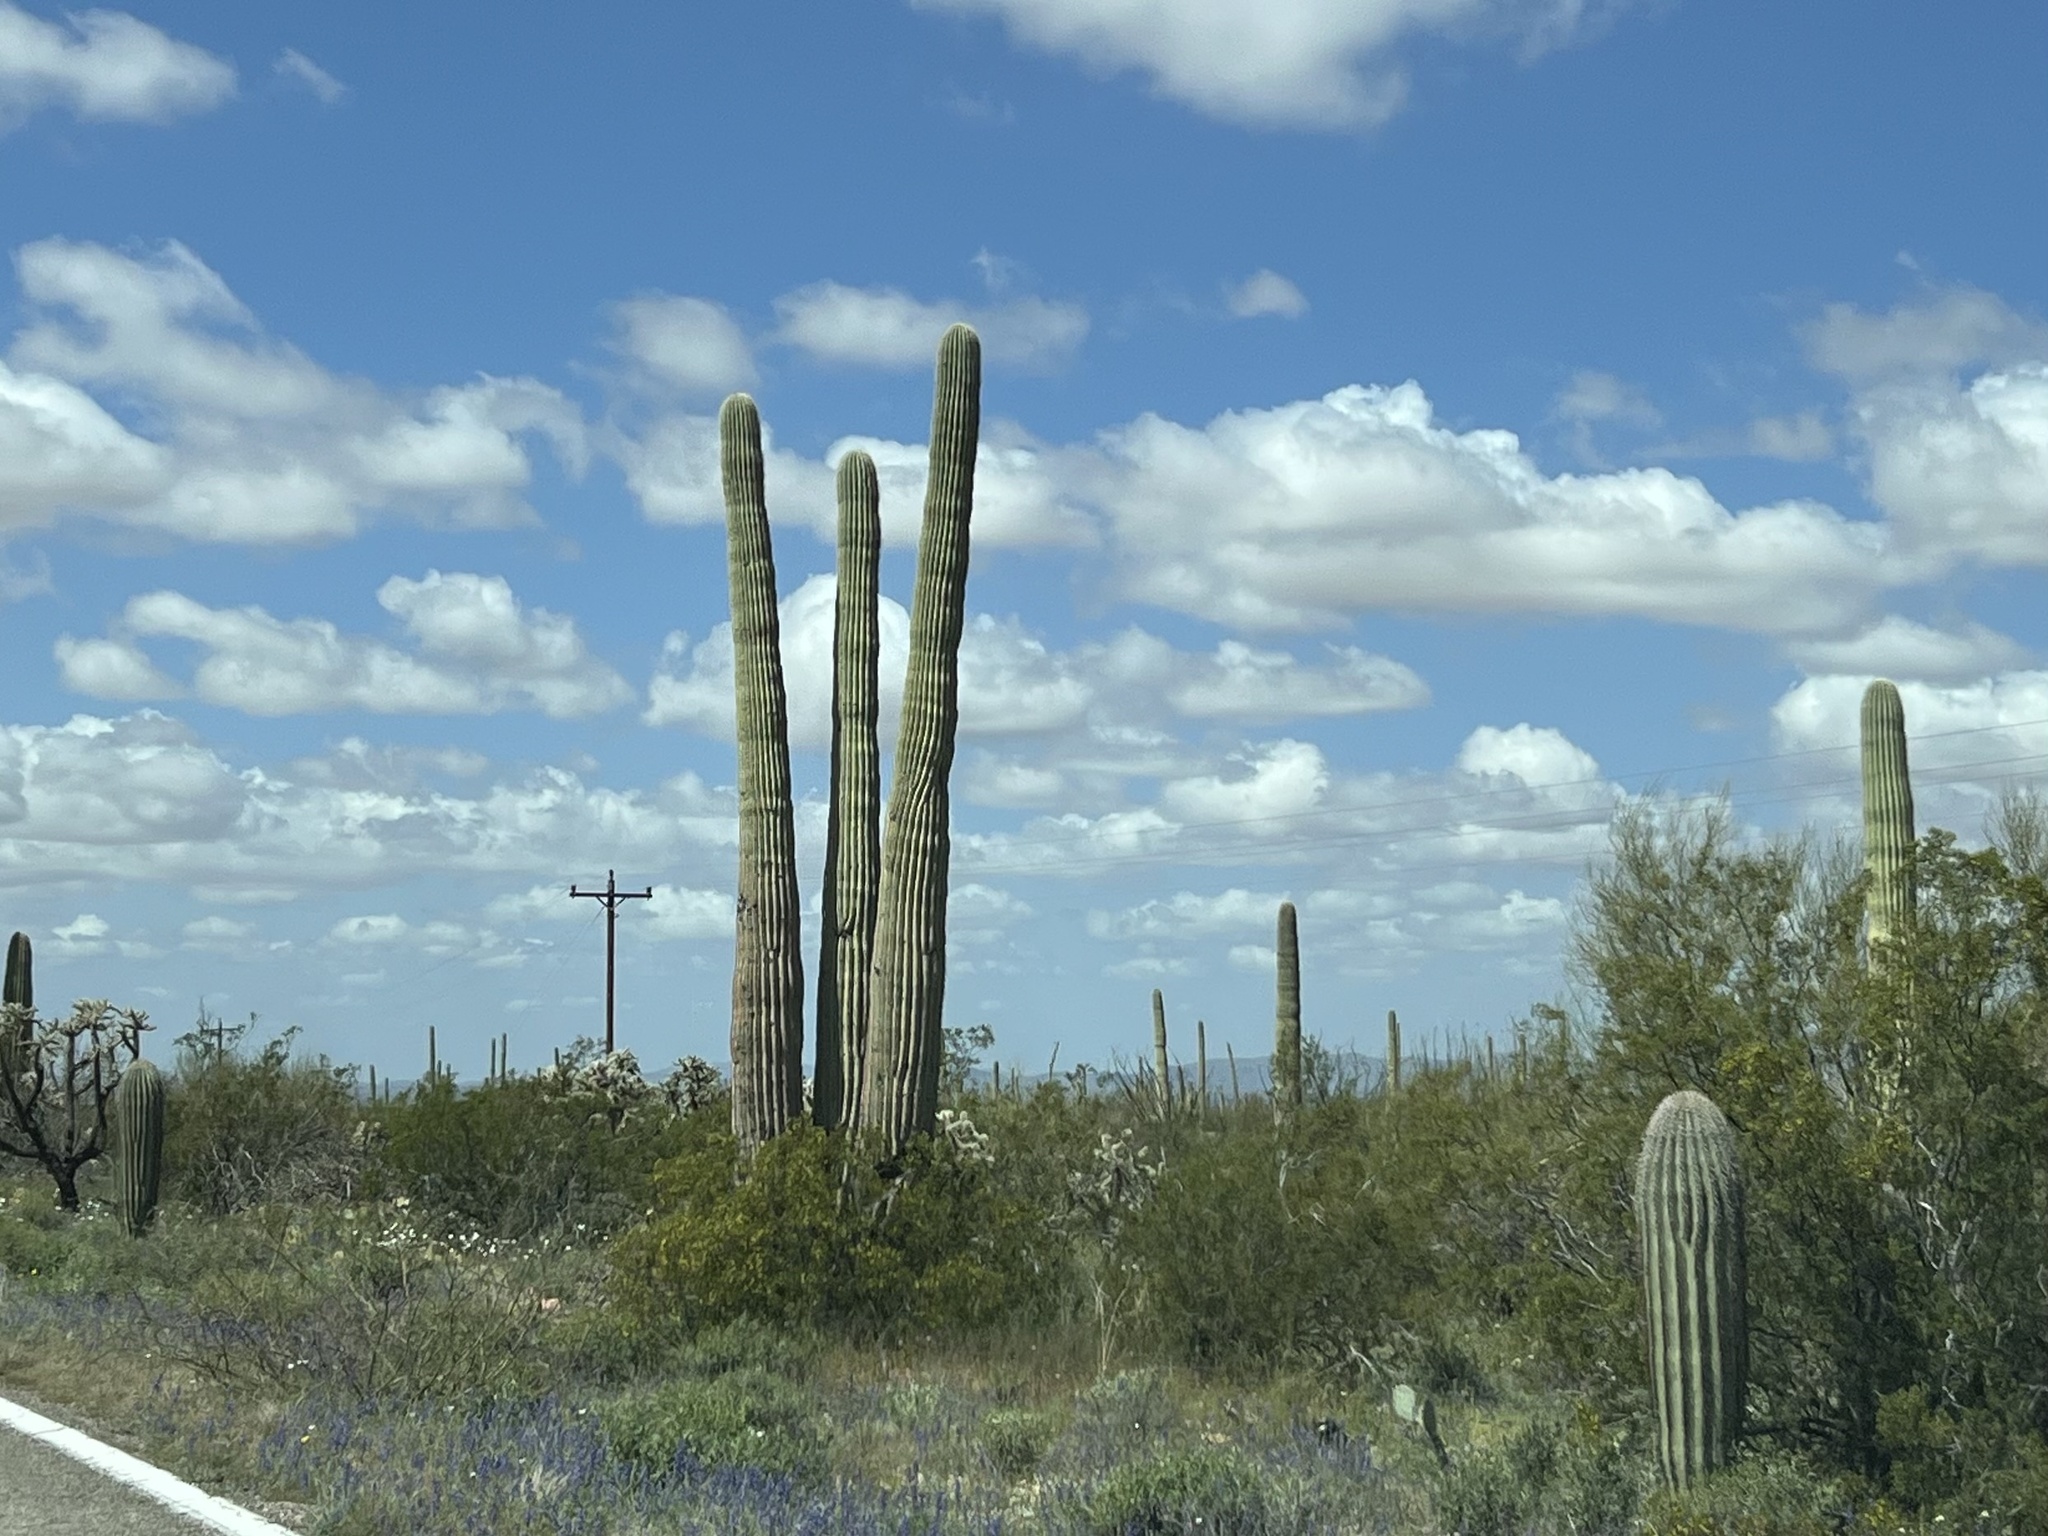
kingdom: Plantae
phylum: Tracheophyta
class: Magnoliopsida
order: Caryophyllales
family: Cactaceae
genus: Carnegiea
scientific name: Carnegiea gigantea
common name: Saguaro
